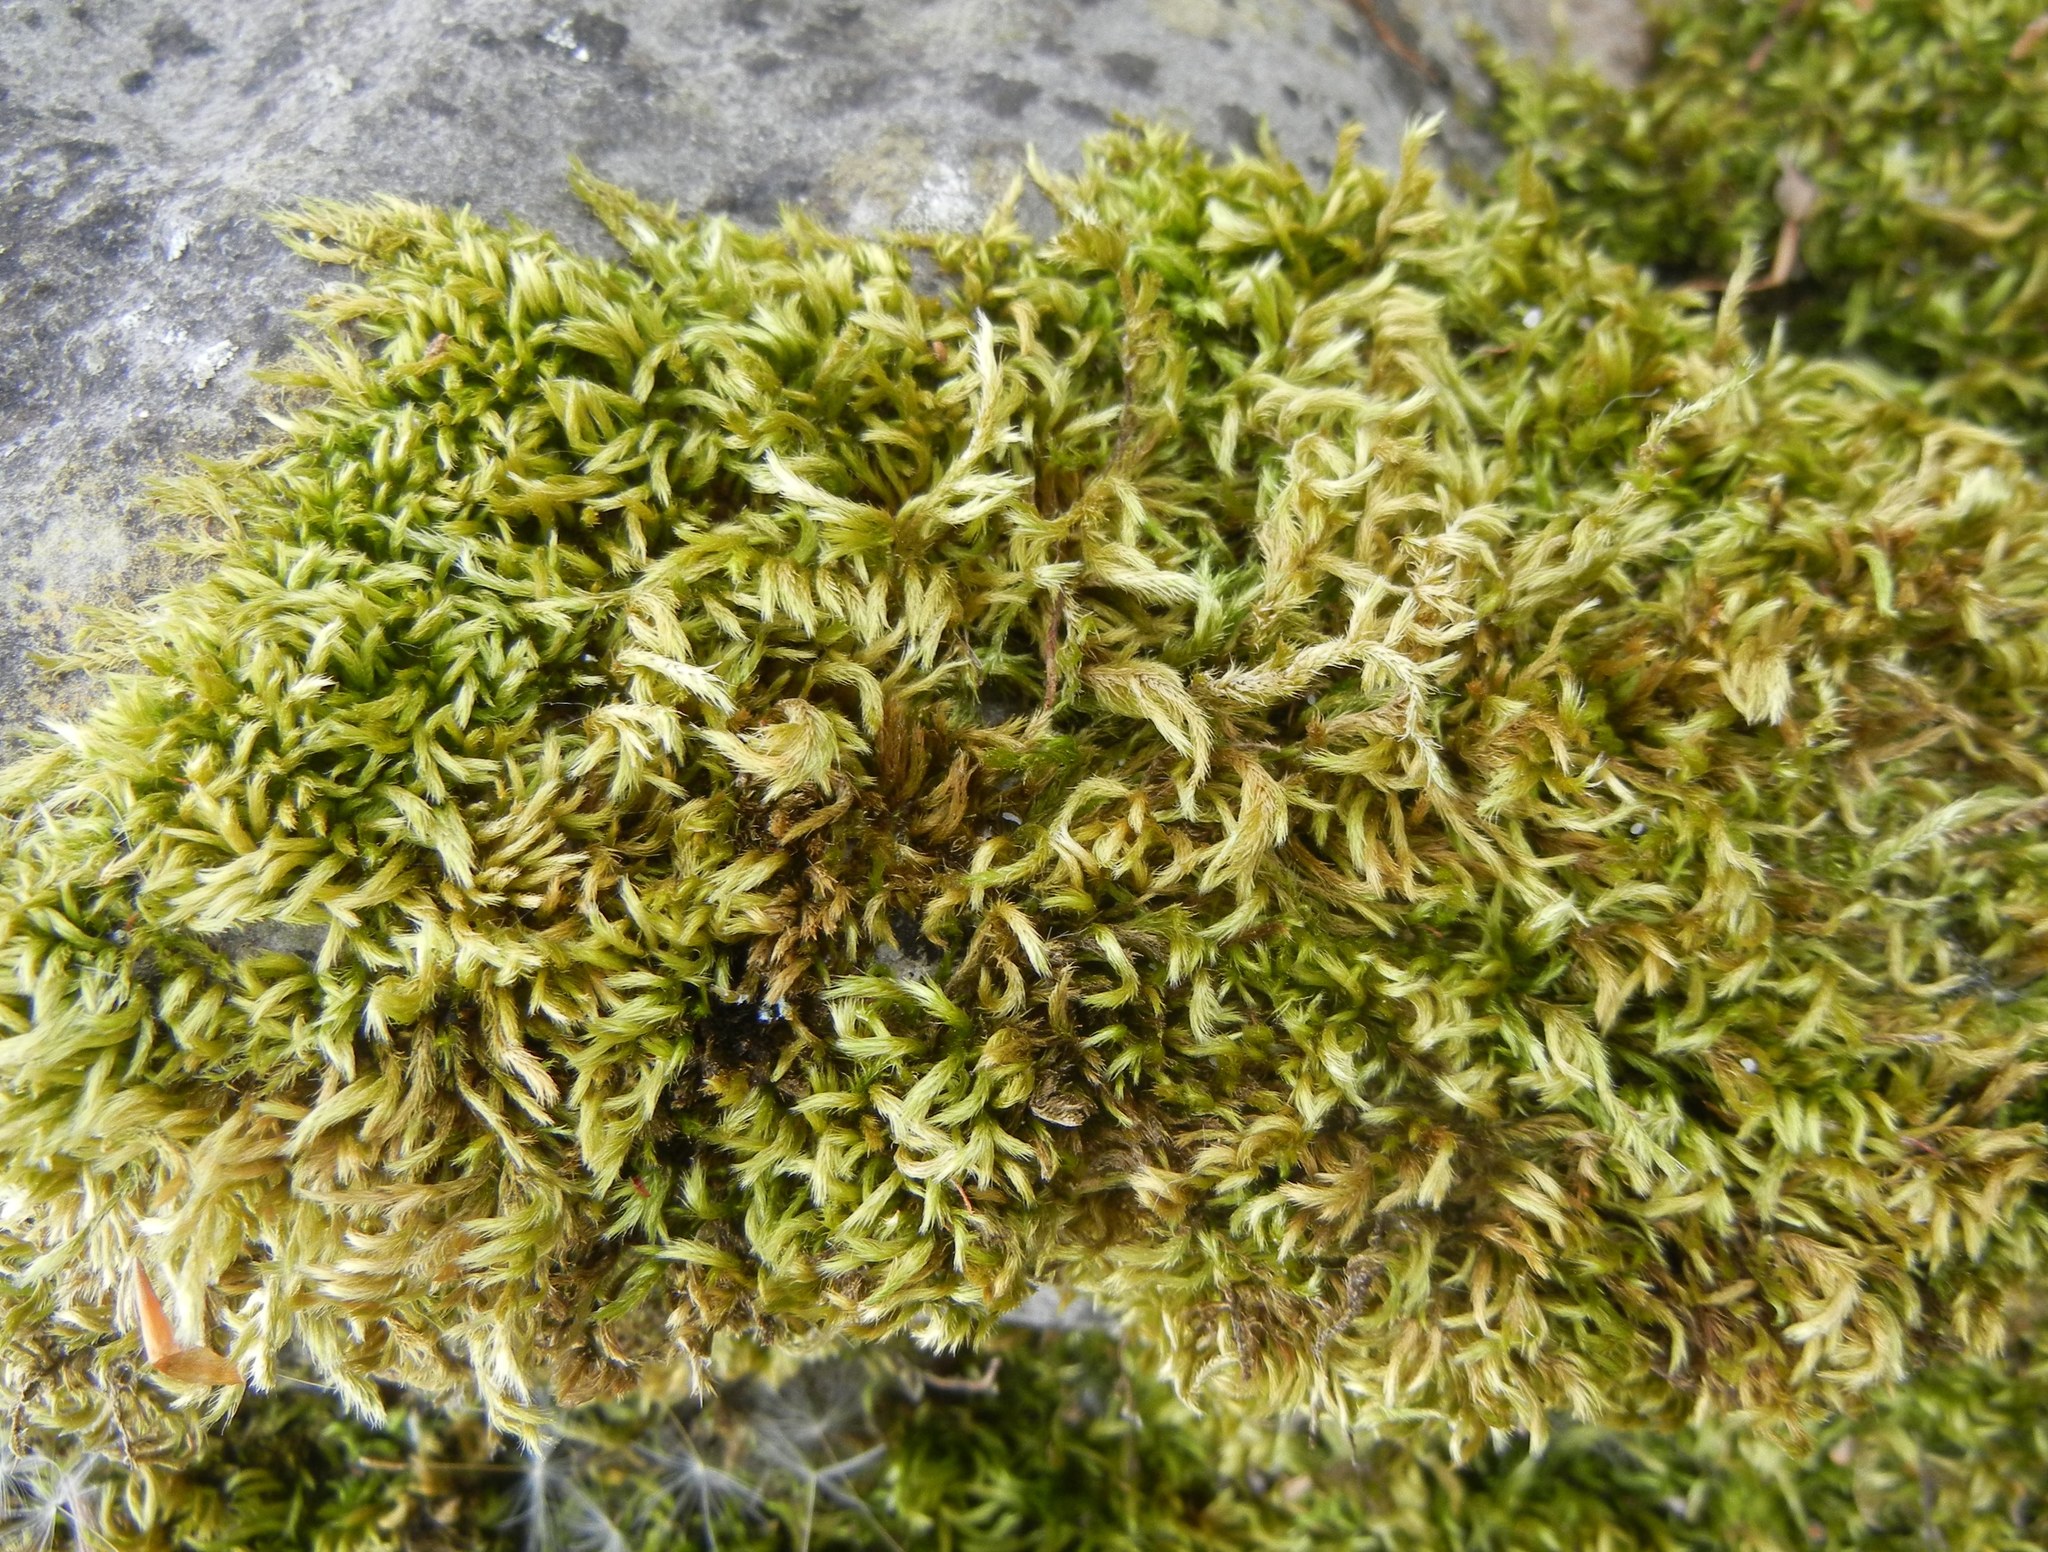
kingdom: Plantae
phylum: Bryophyta
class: Bryopsida
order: Hypnales
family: Brachytheciaceae
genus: Homalothecium
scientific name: Homalothecium sericeum
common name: Silky wall feather-moss
